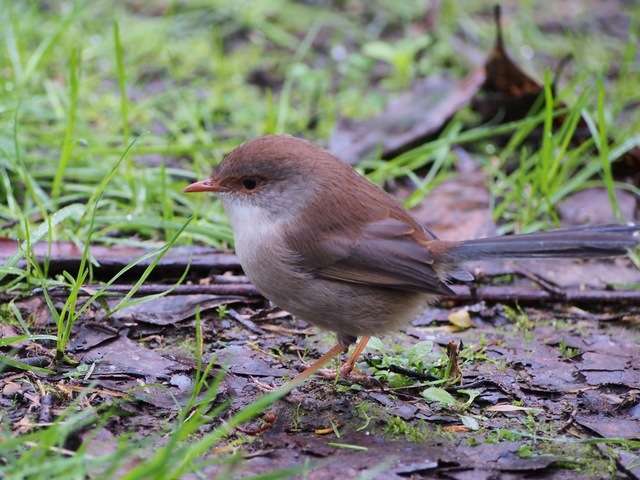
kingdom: Animalia
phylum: Chordata
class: Aves
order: Passeriformes
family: Maluridae
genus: Malurus
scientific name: Malurus cyaneus
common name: Superb fairywren
